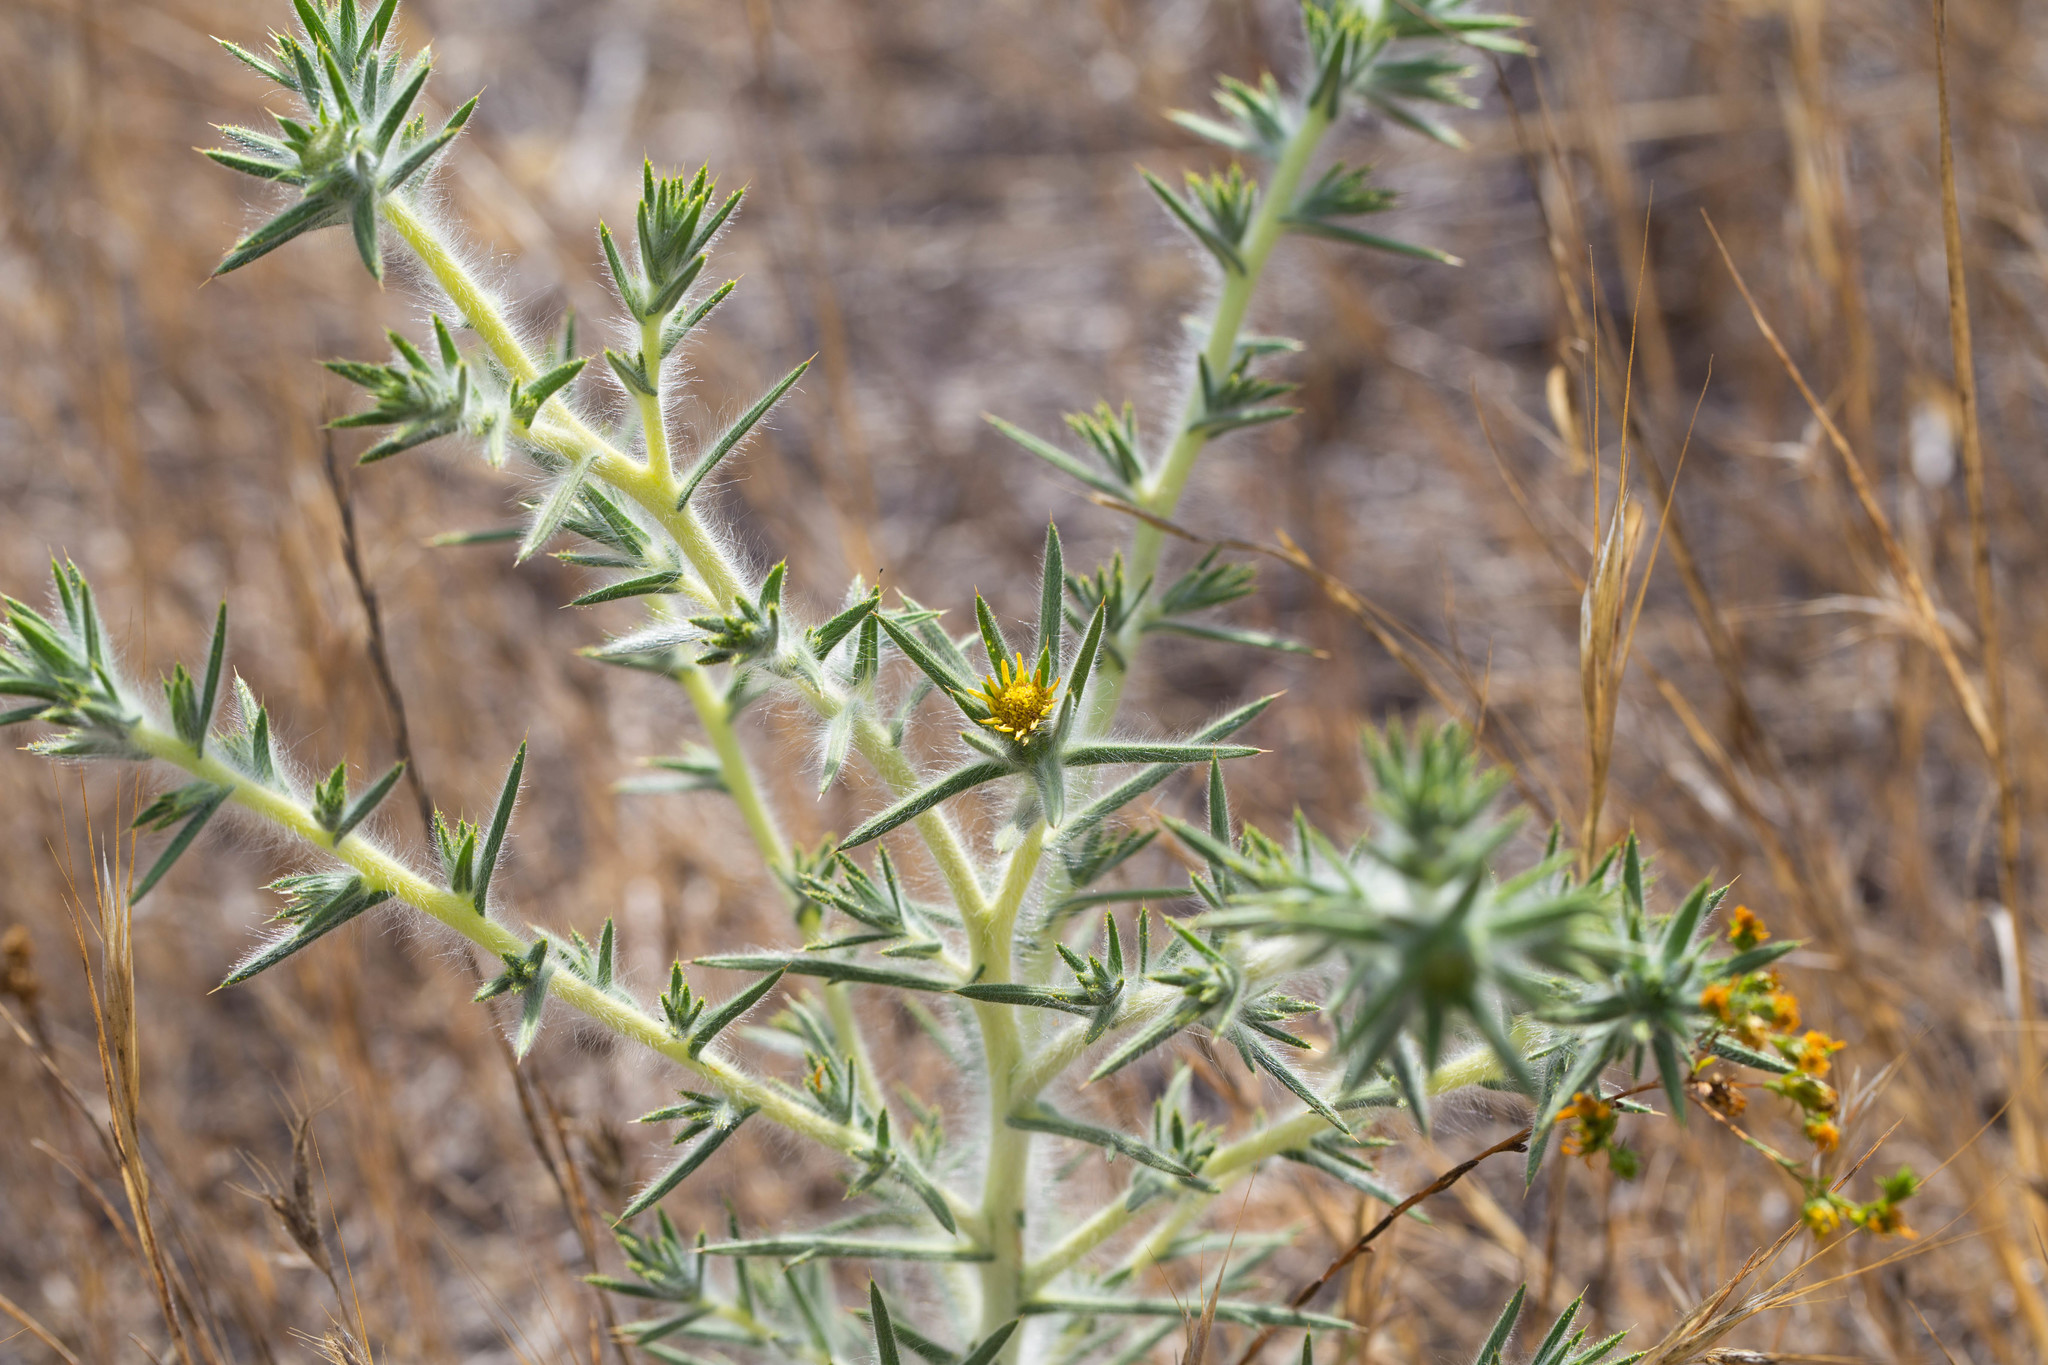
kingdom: Plantae
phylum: Tracheophyta
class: Magnoliopsida
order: Asterales
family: Asteraceae
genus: Centromadia
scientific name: Centromadia fitchii
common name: Fitch's spikeweed
